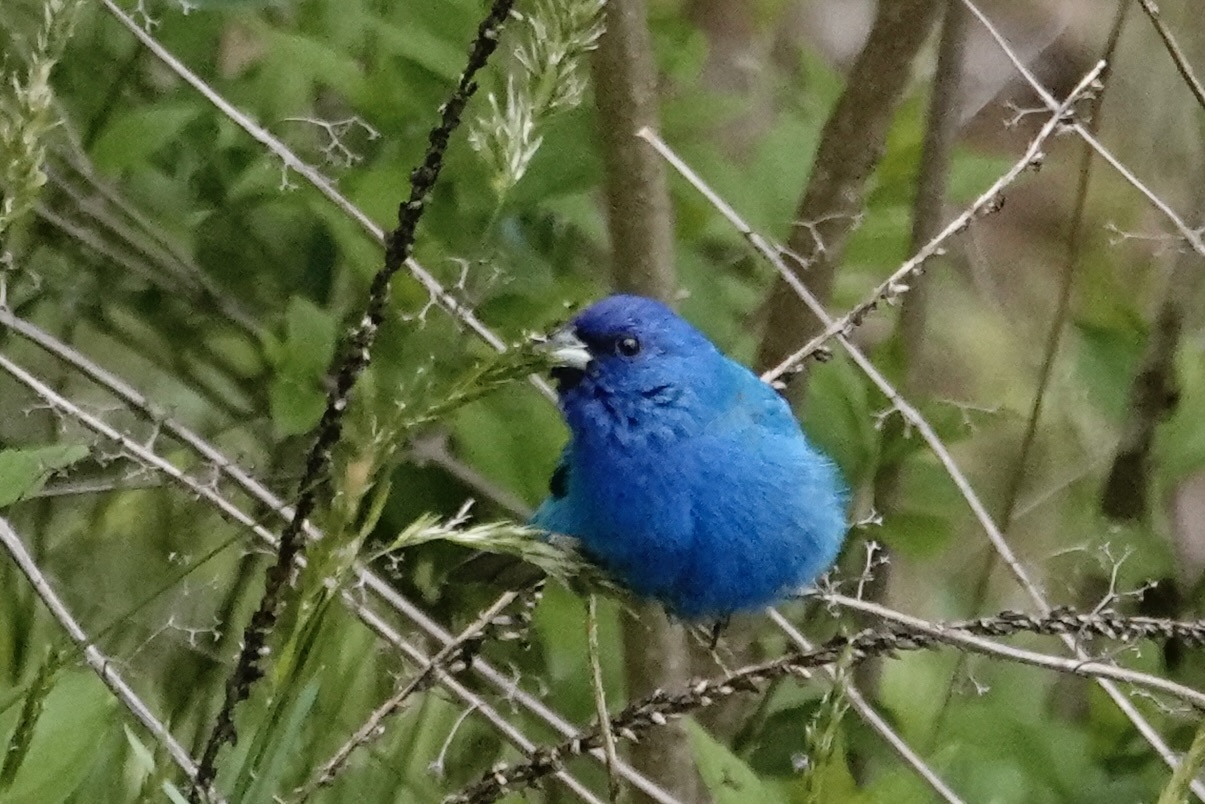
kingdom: Animalia
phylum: Chordata
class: Aves
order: Passeriformes
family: Cardinalidae
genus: Passerina
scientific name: Passerina cyanea
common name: Indigo bunting
